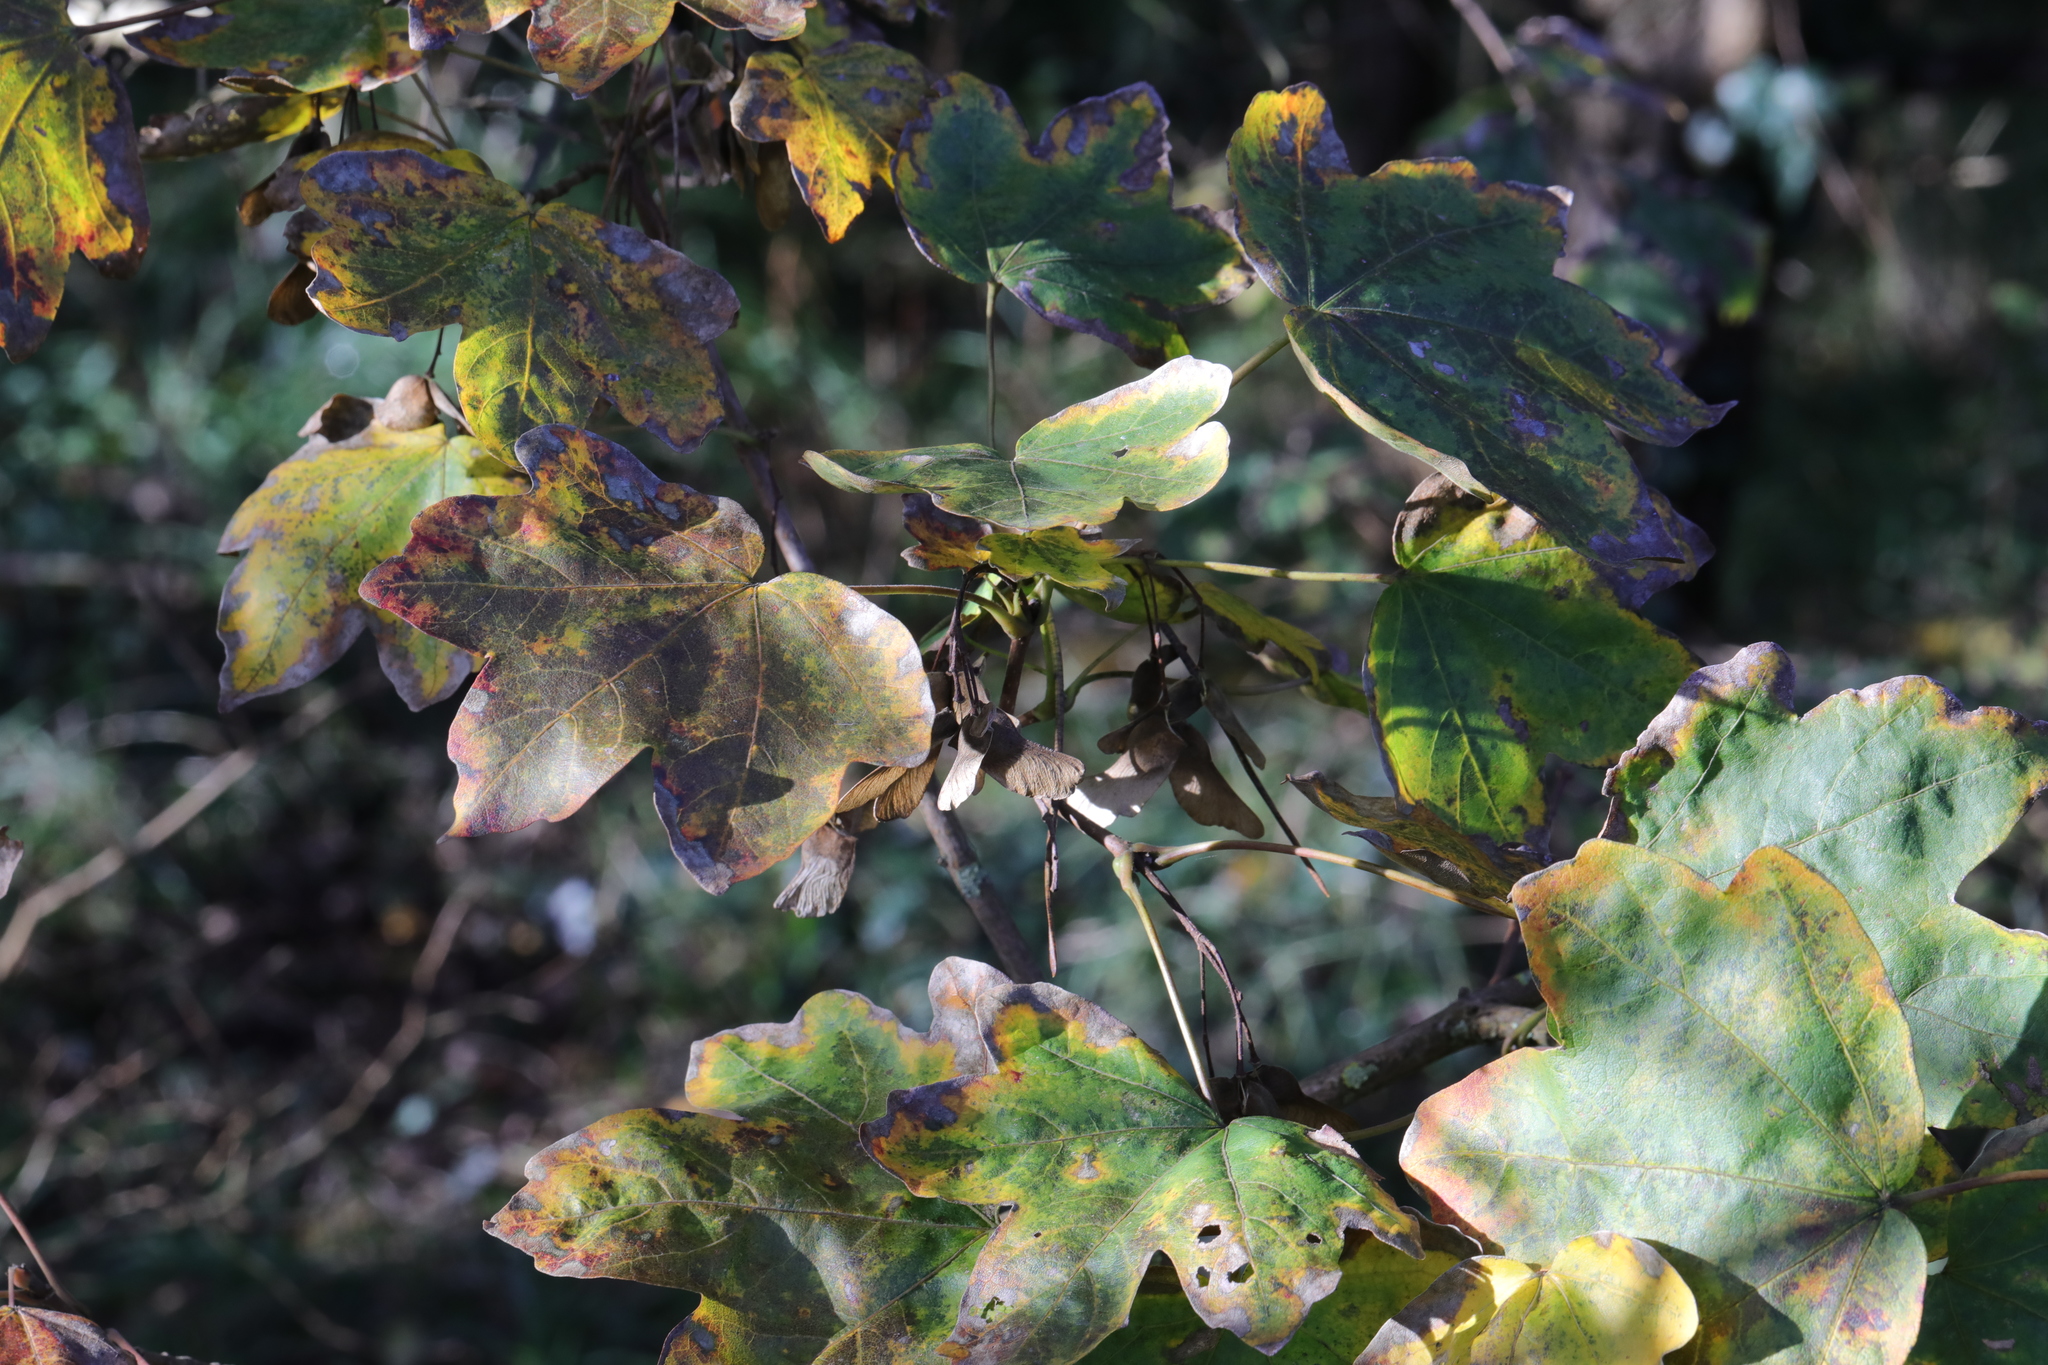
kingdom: Plantae
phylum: Tracheophyta
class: Magnoliopsida
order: Sapindales
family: Sapindaceae
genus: Acer
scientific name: Acer campestre
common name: Field maple
